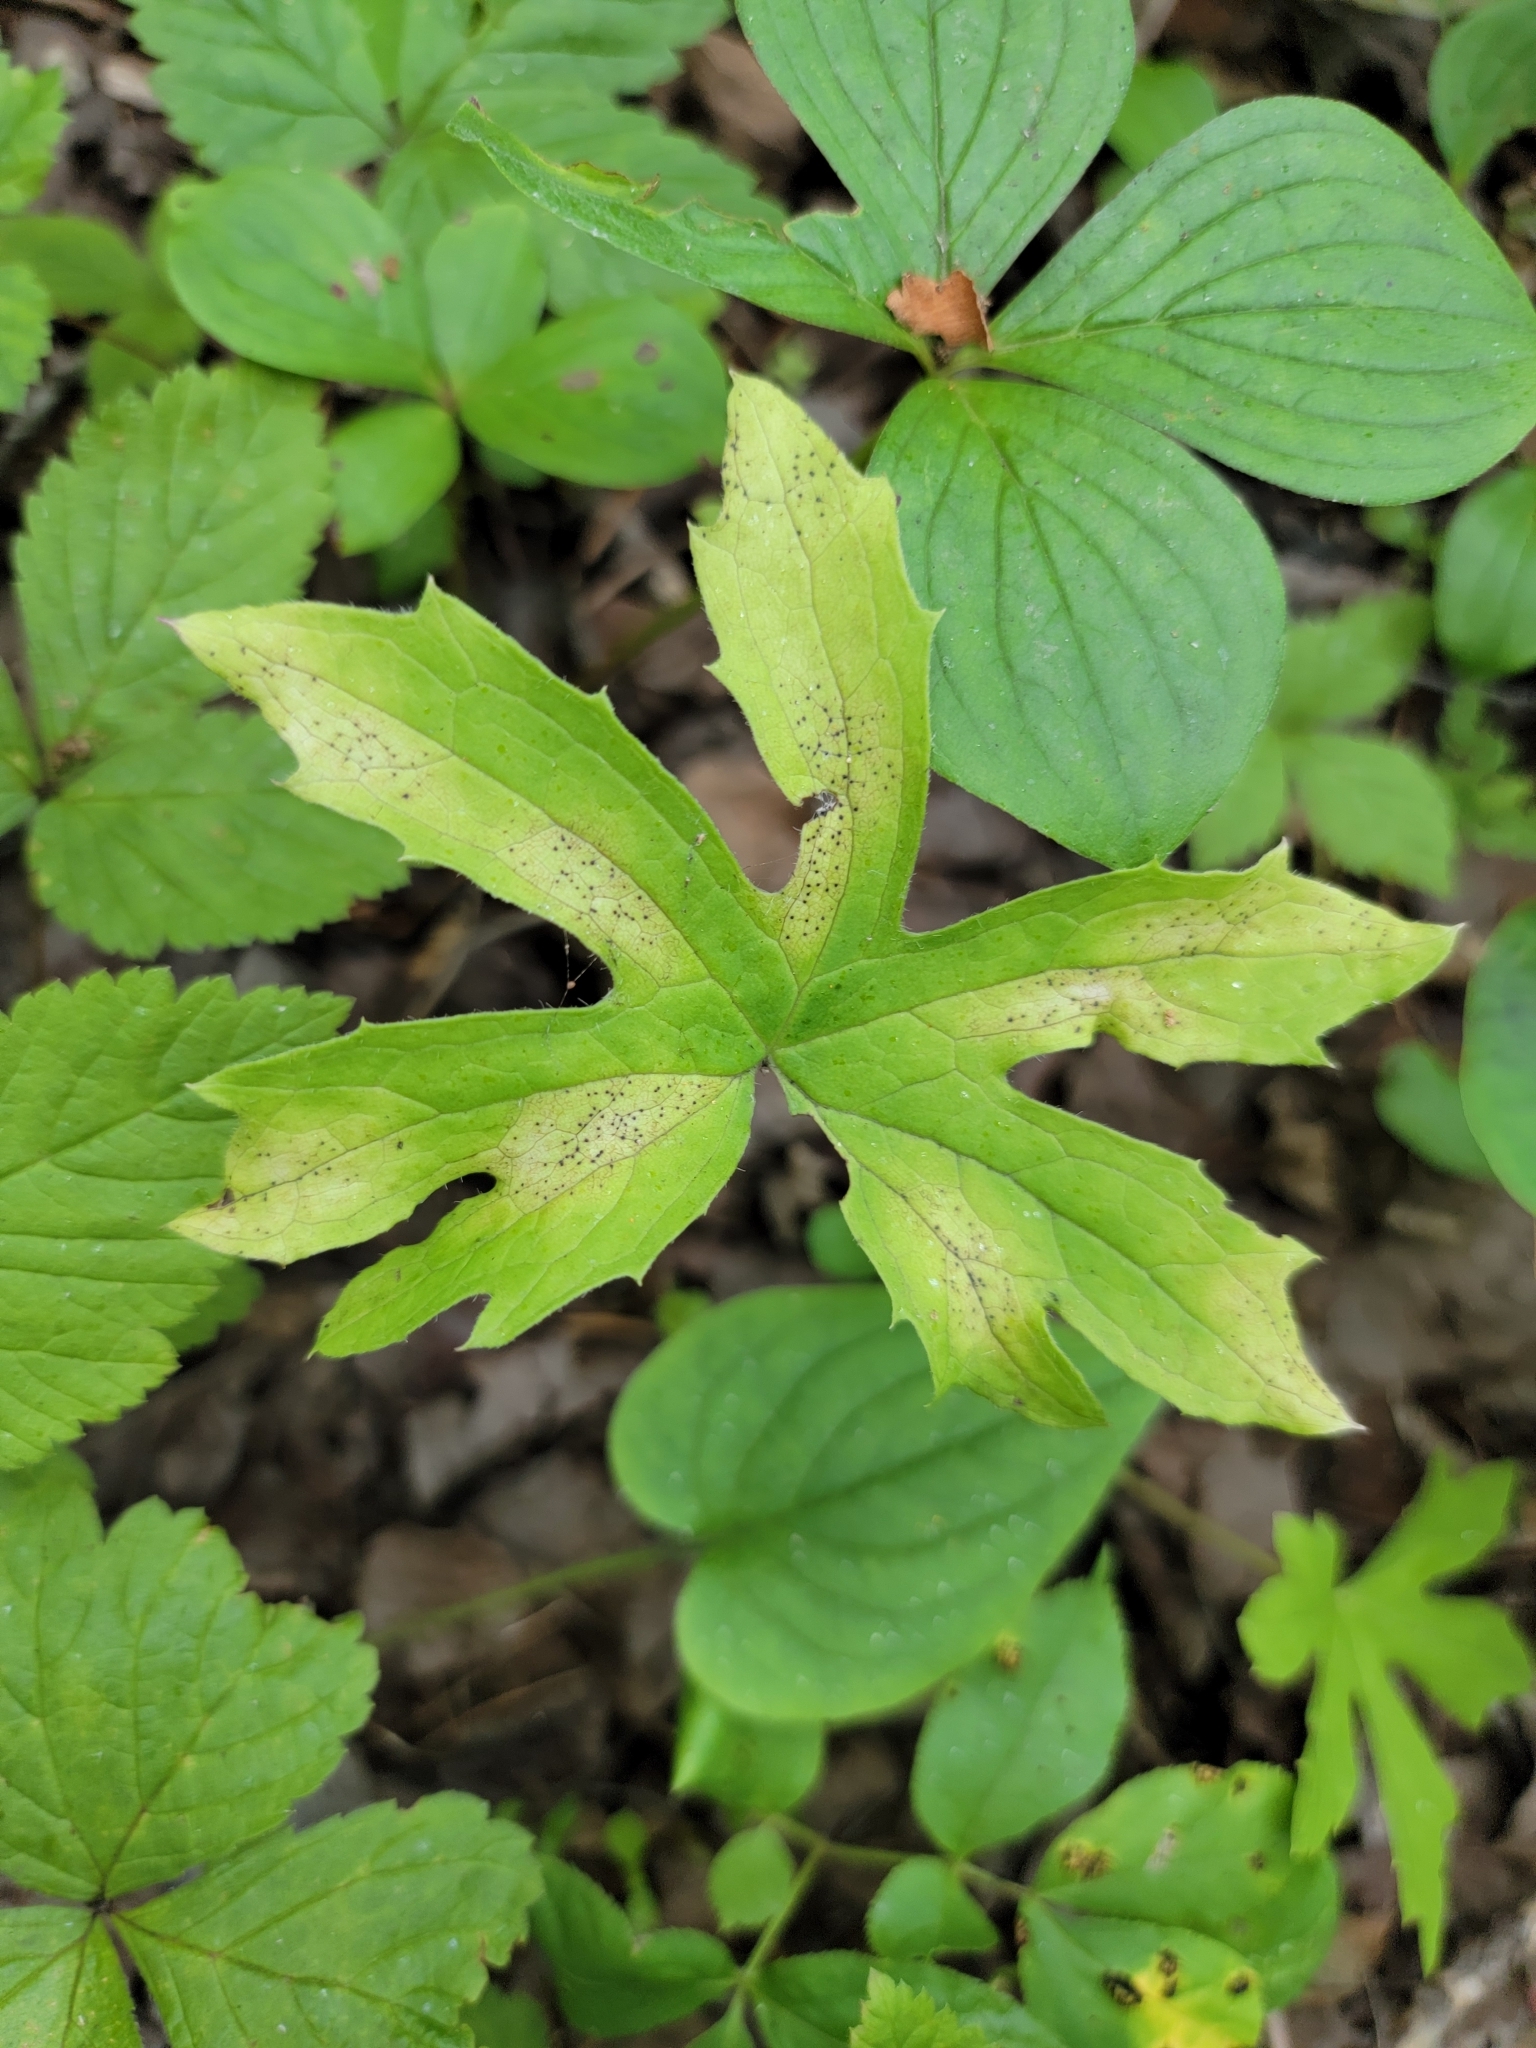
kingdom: Plantae
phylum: Tracheophyta
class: Magnoliopsida
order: Asterales
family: Asteraceae
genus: Petasites
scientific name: Petasites frigidus
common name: Arctic butterbur
